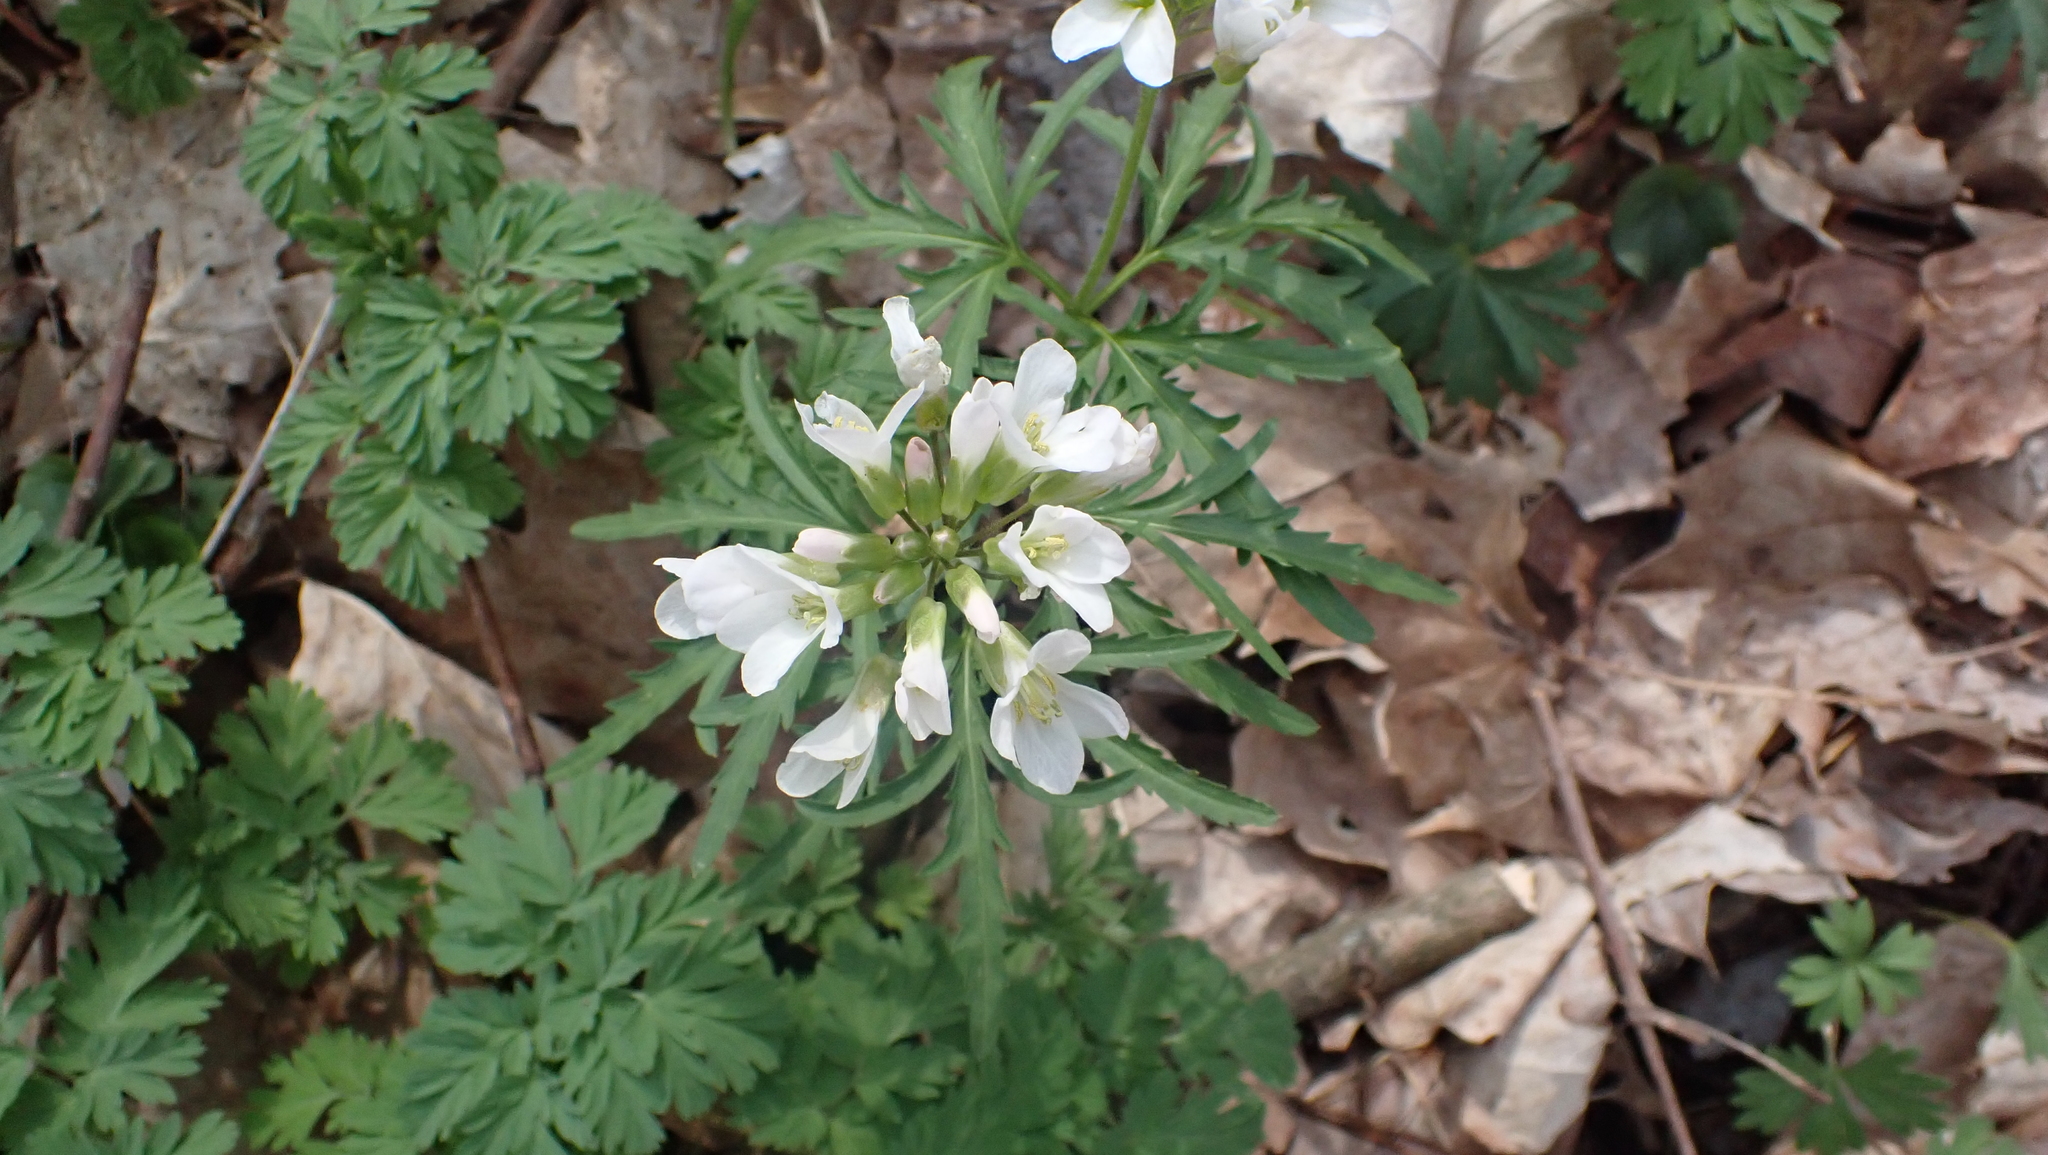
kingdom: Plantae
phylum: Tracheophyta
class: Magnoliopsida
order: Brassicales
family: Brassicaceae
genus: Cardamine
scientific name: Cardamine concatenata
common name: Cut-leaf toothcup
